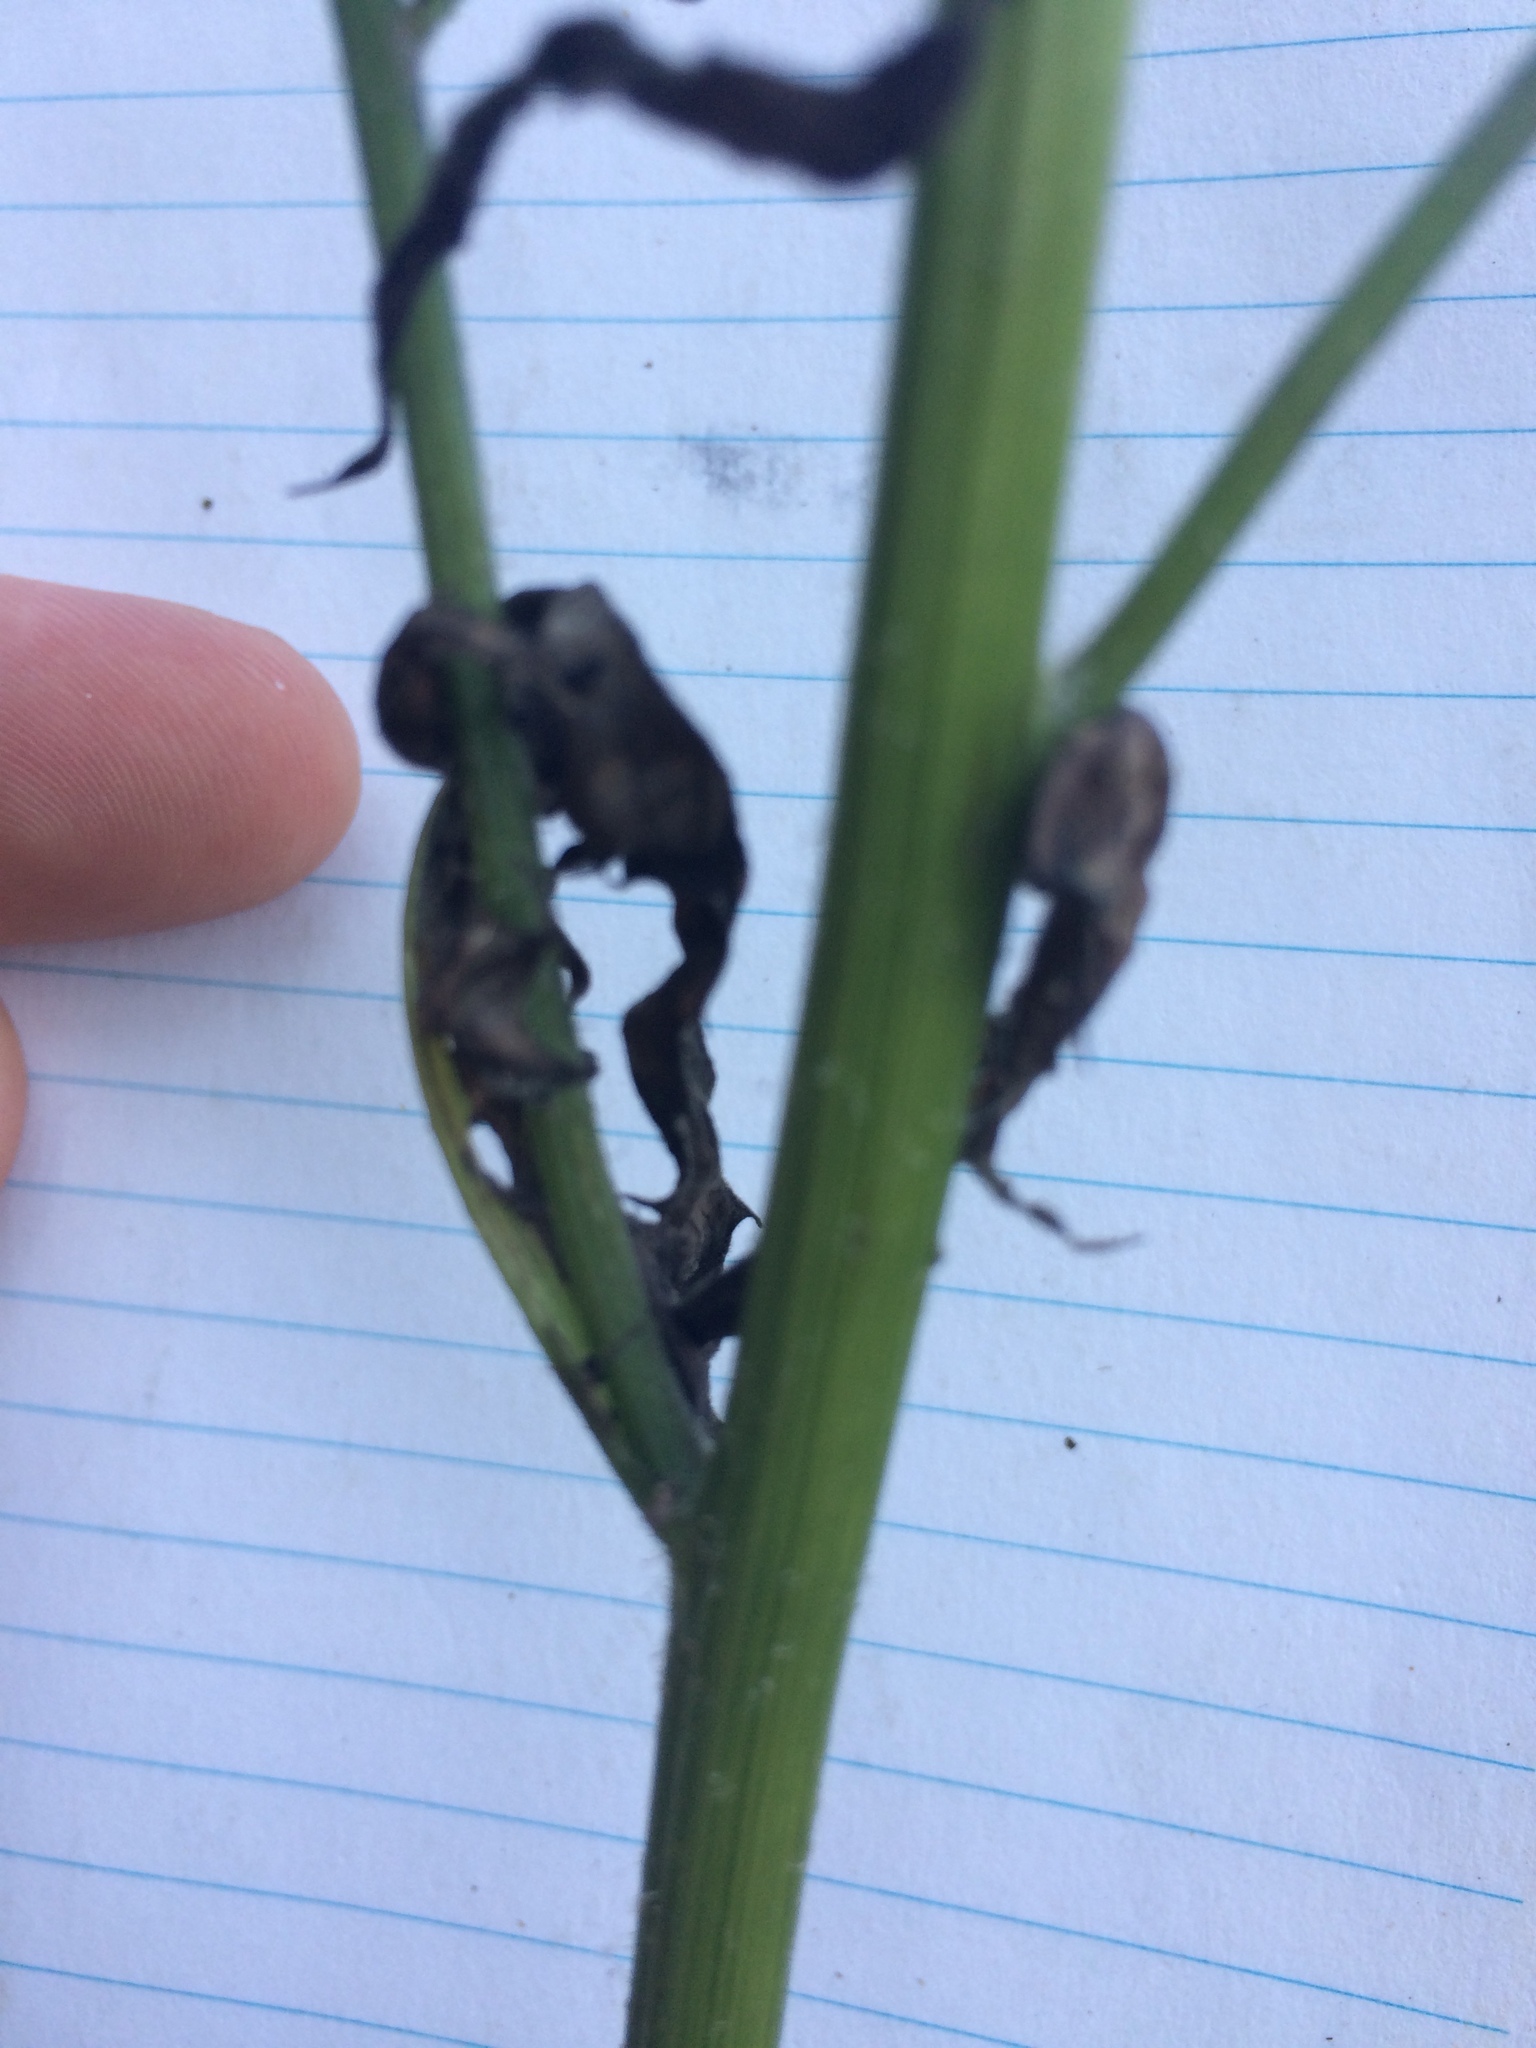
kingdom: Plantae
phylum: Tracheophyta
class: Magnoliopsida
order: Asterales
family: Asteraceae
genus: Erechtites
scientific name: Erechtites hieraciifolius
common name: American burnweed
